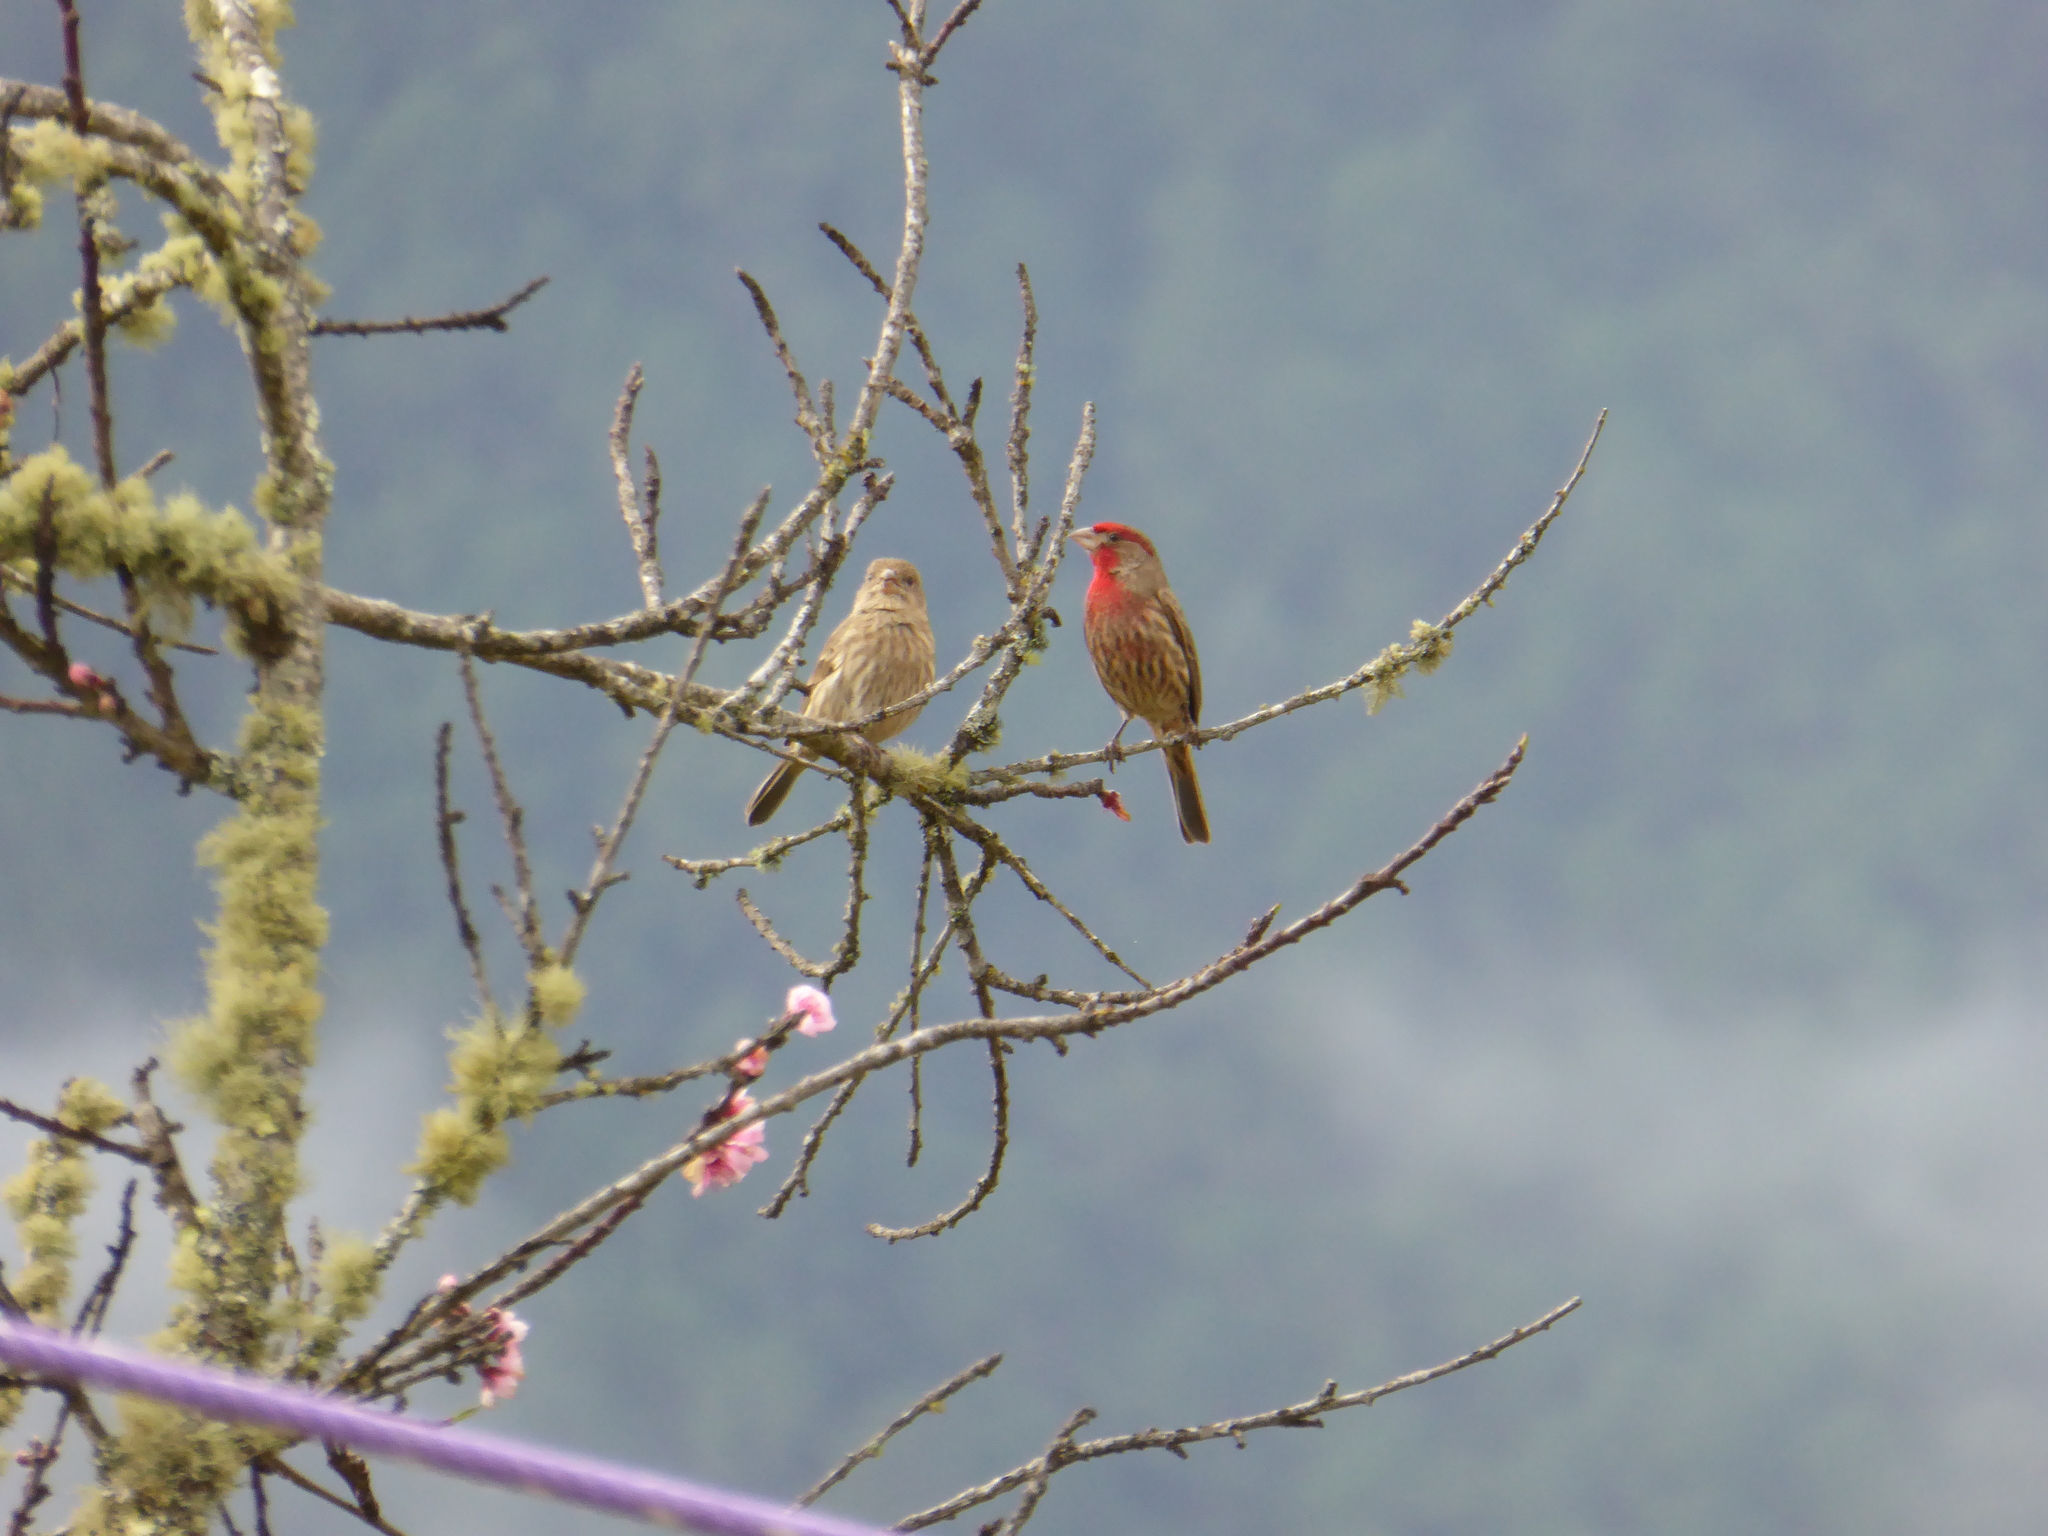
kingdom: Animalia
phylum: Chordata
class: Aves
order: Passeriformes
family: Fringillidae
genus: Haemorhous
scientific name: Haemorhous mexicanus
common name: House finch
